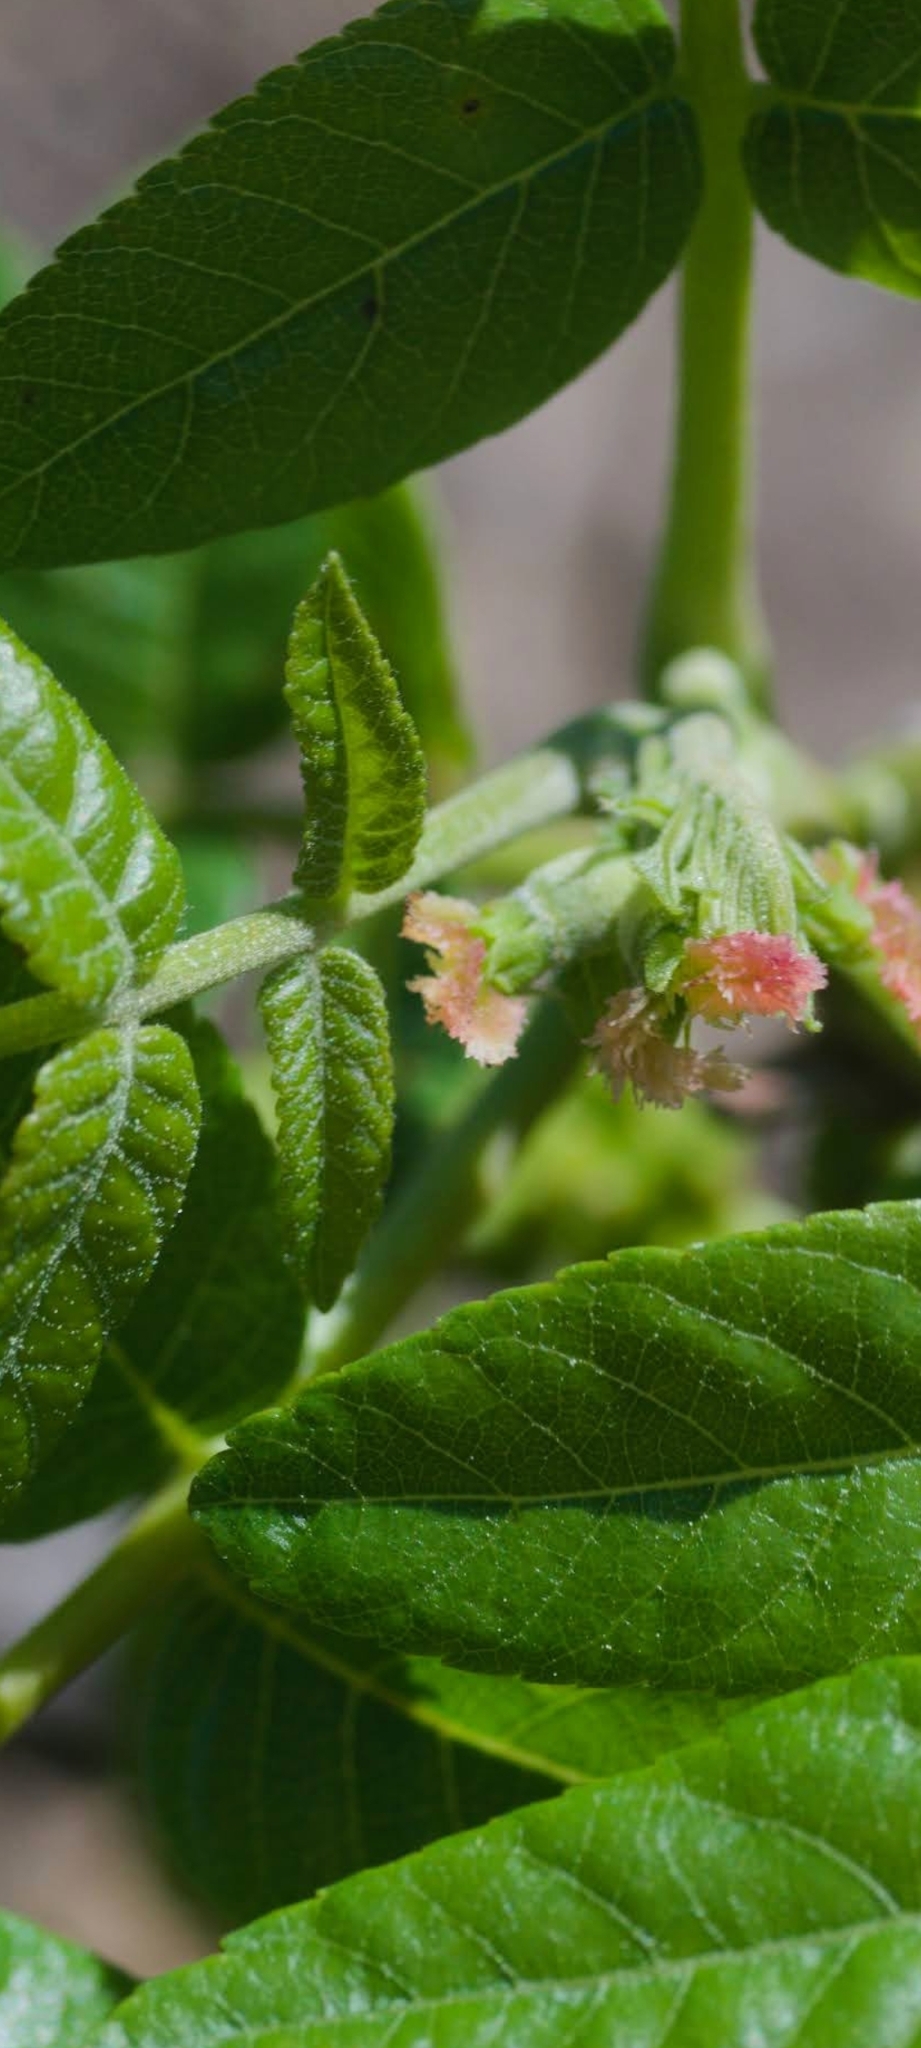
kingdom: Plantae
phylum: Tracheophyta
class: Magnoliopsida
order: Fagales
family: Juglandaceae
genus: Juglans
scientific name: Juglans californica
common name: Southern california black walnut
